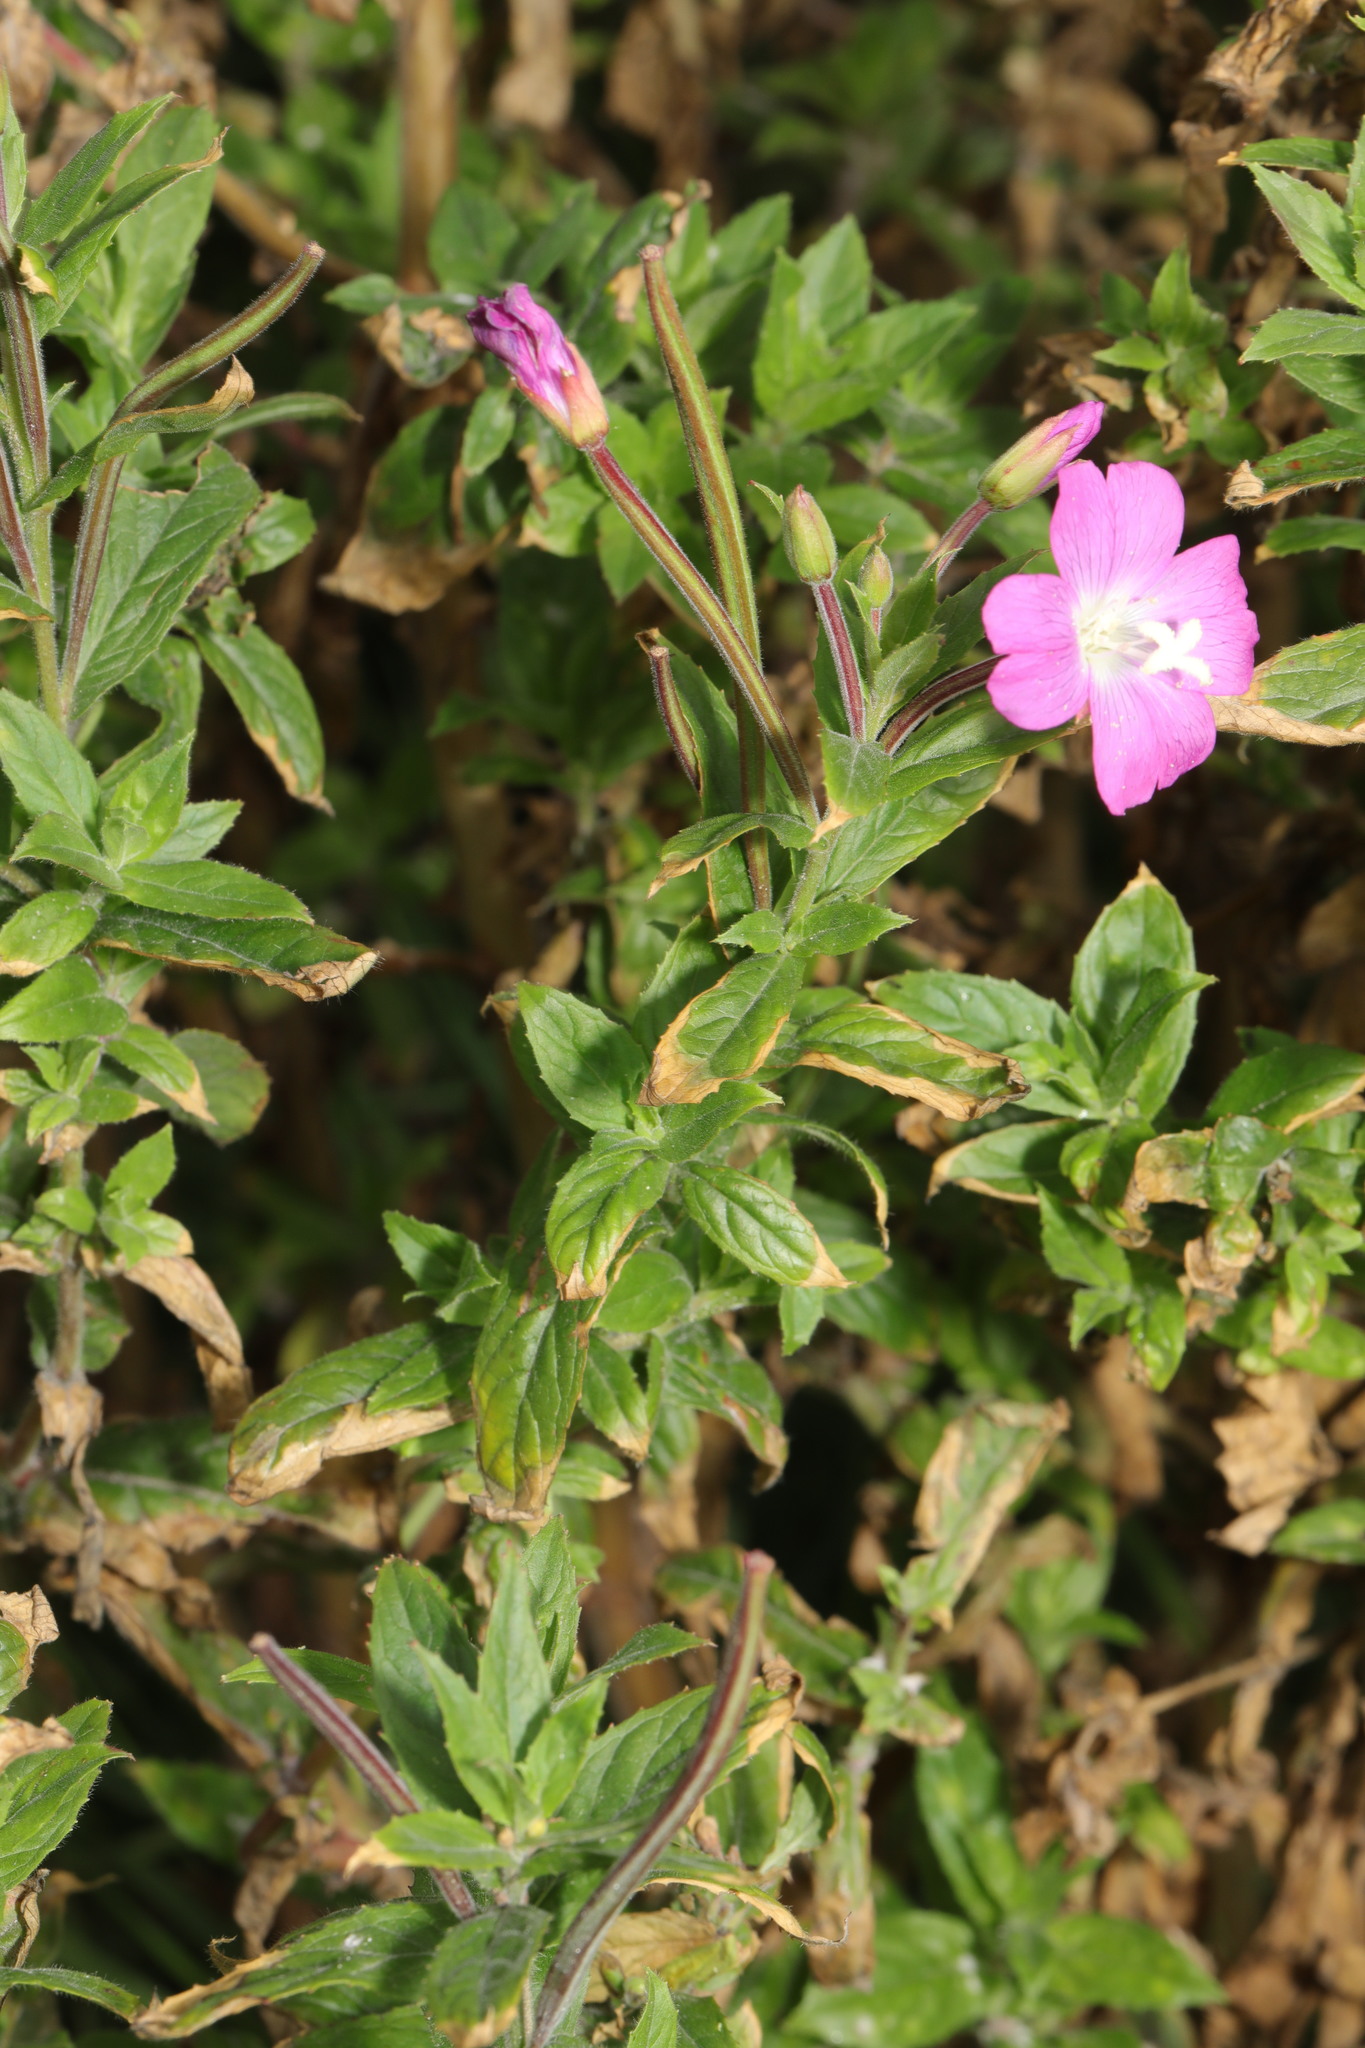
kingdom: Plantae
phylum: Tracheophyta
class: Magnoliopsida
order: Myrtales
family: Onagraceae
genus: Epilobium
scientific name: Epilobium hirsutum
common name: Great willowherb
